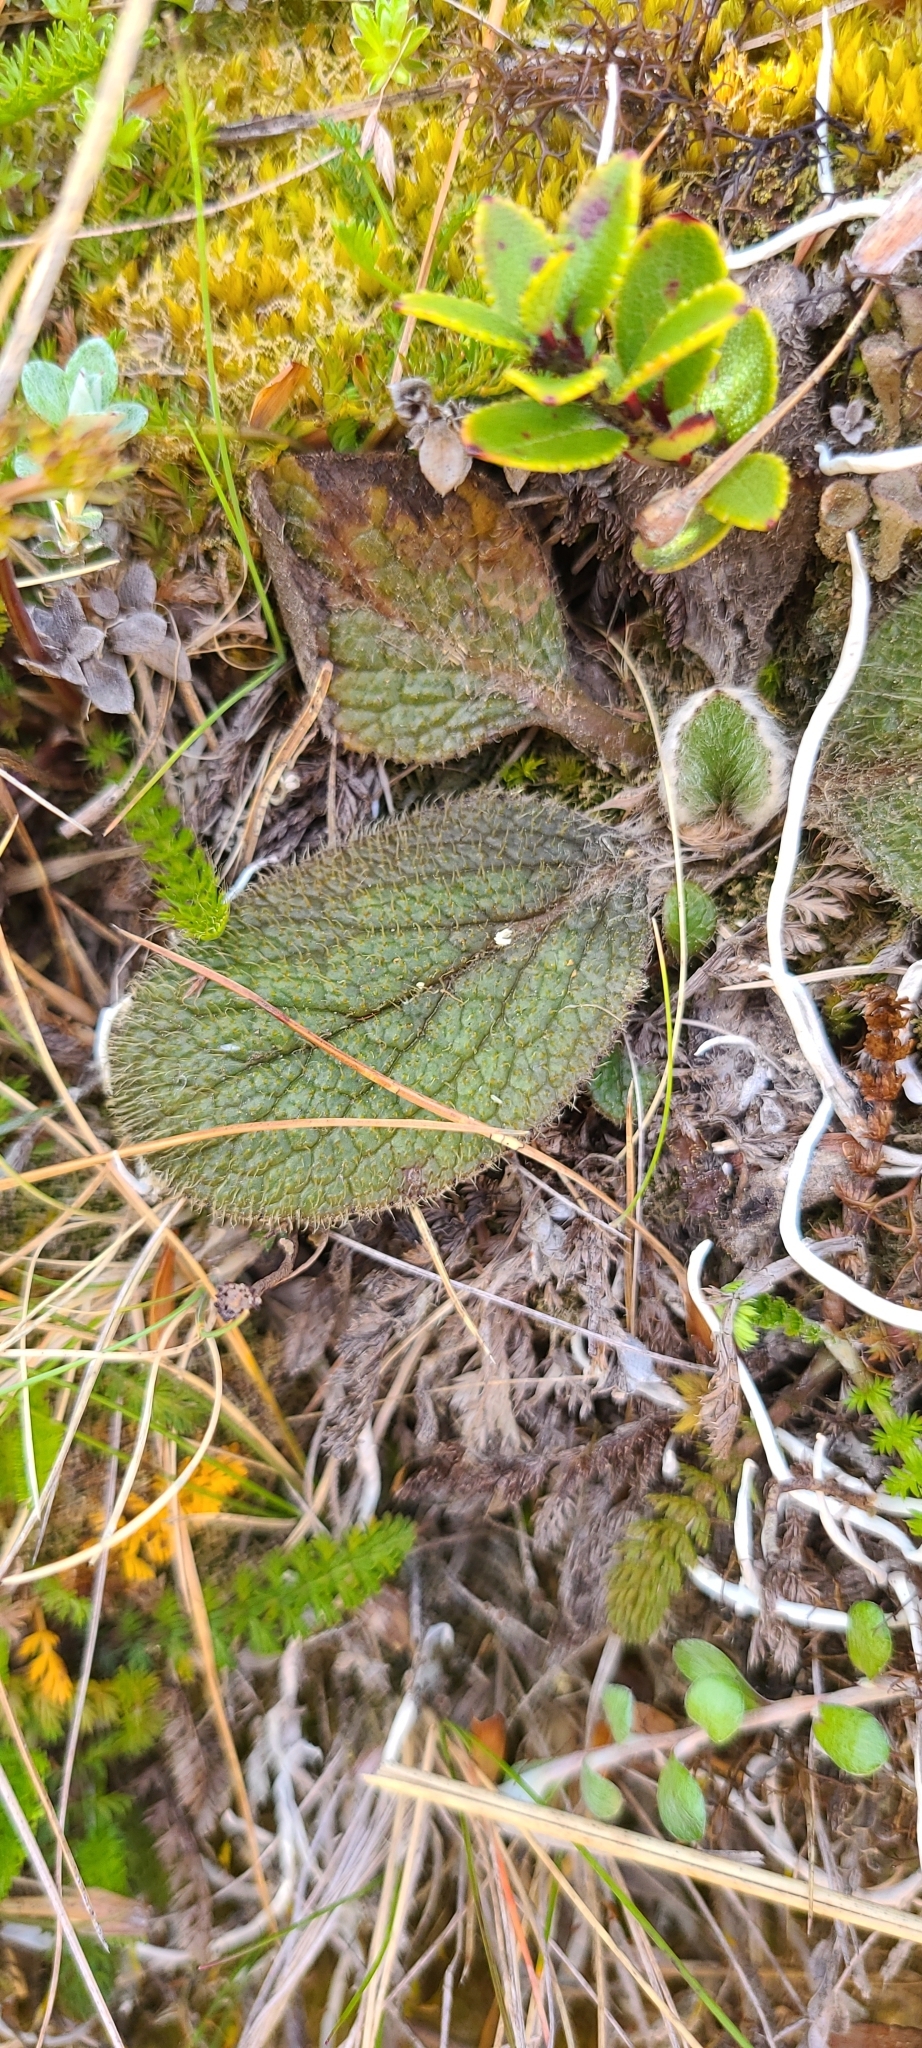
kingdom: Plantae
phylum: Tracheophyta
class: Magnoliopsida
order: Asterales
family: Asteraceae
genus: Brachyglottis
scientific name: Brachyglottis bellidioides
